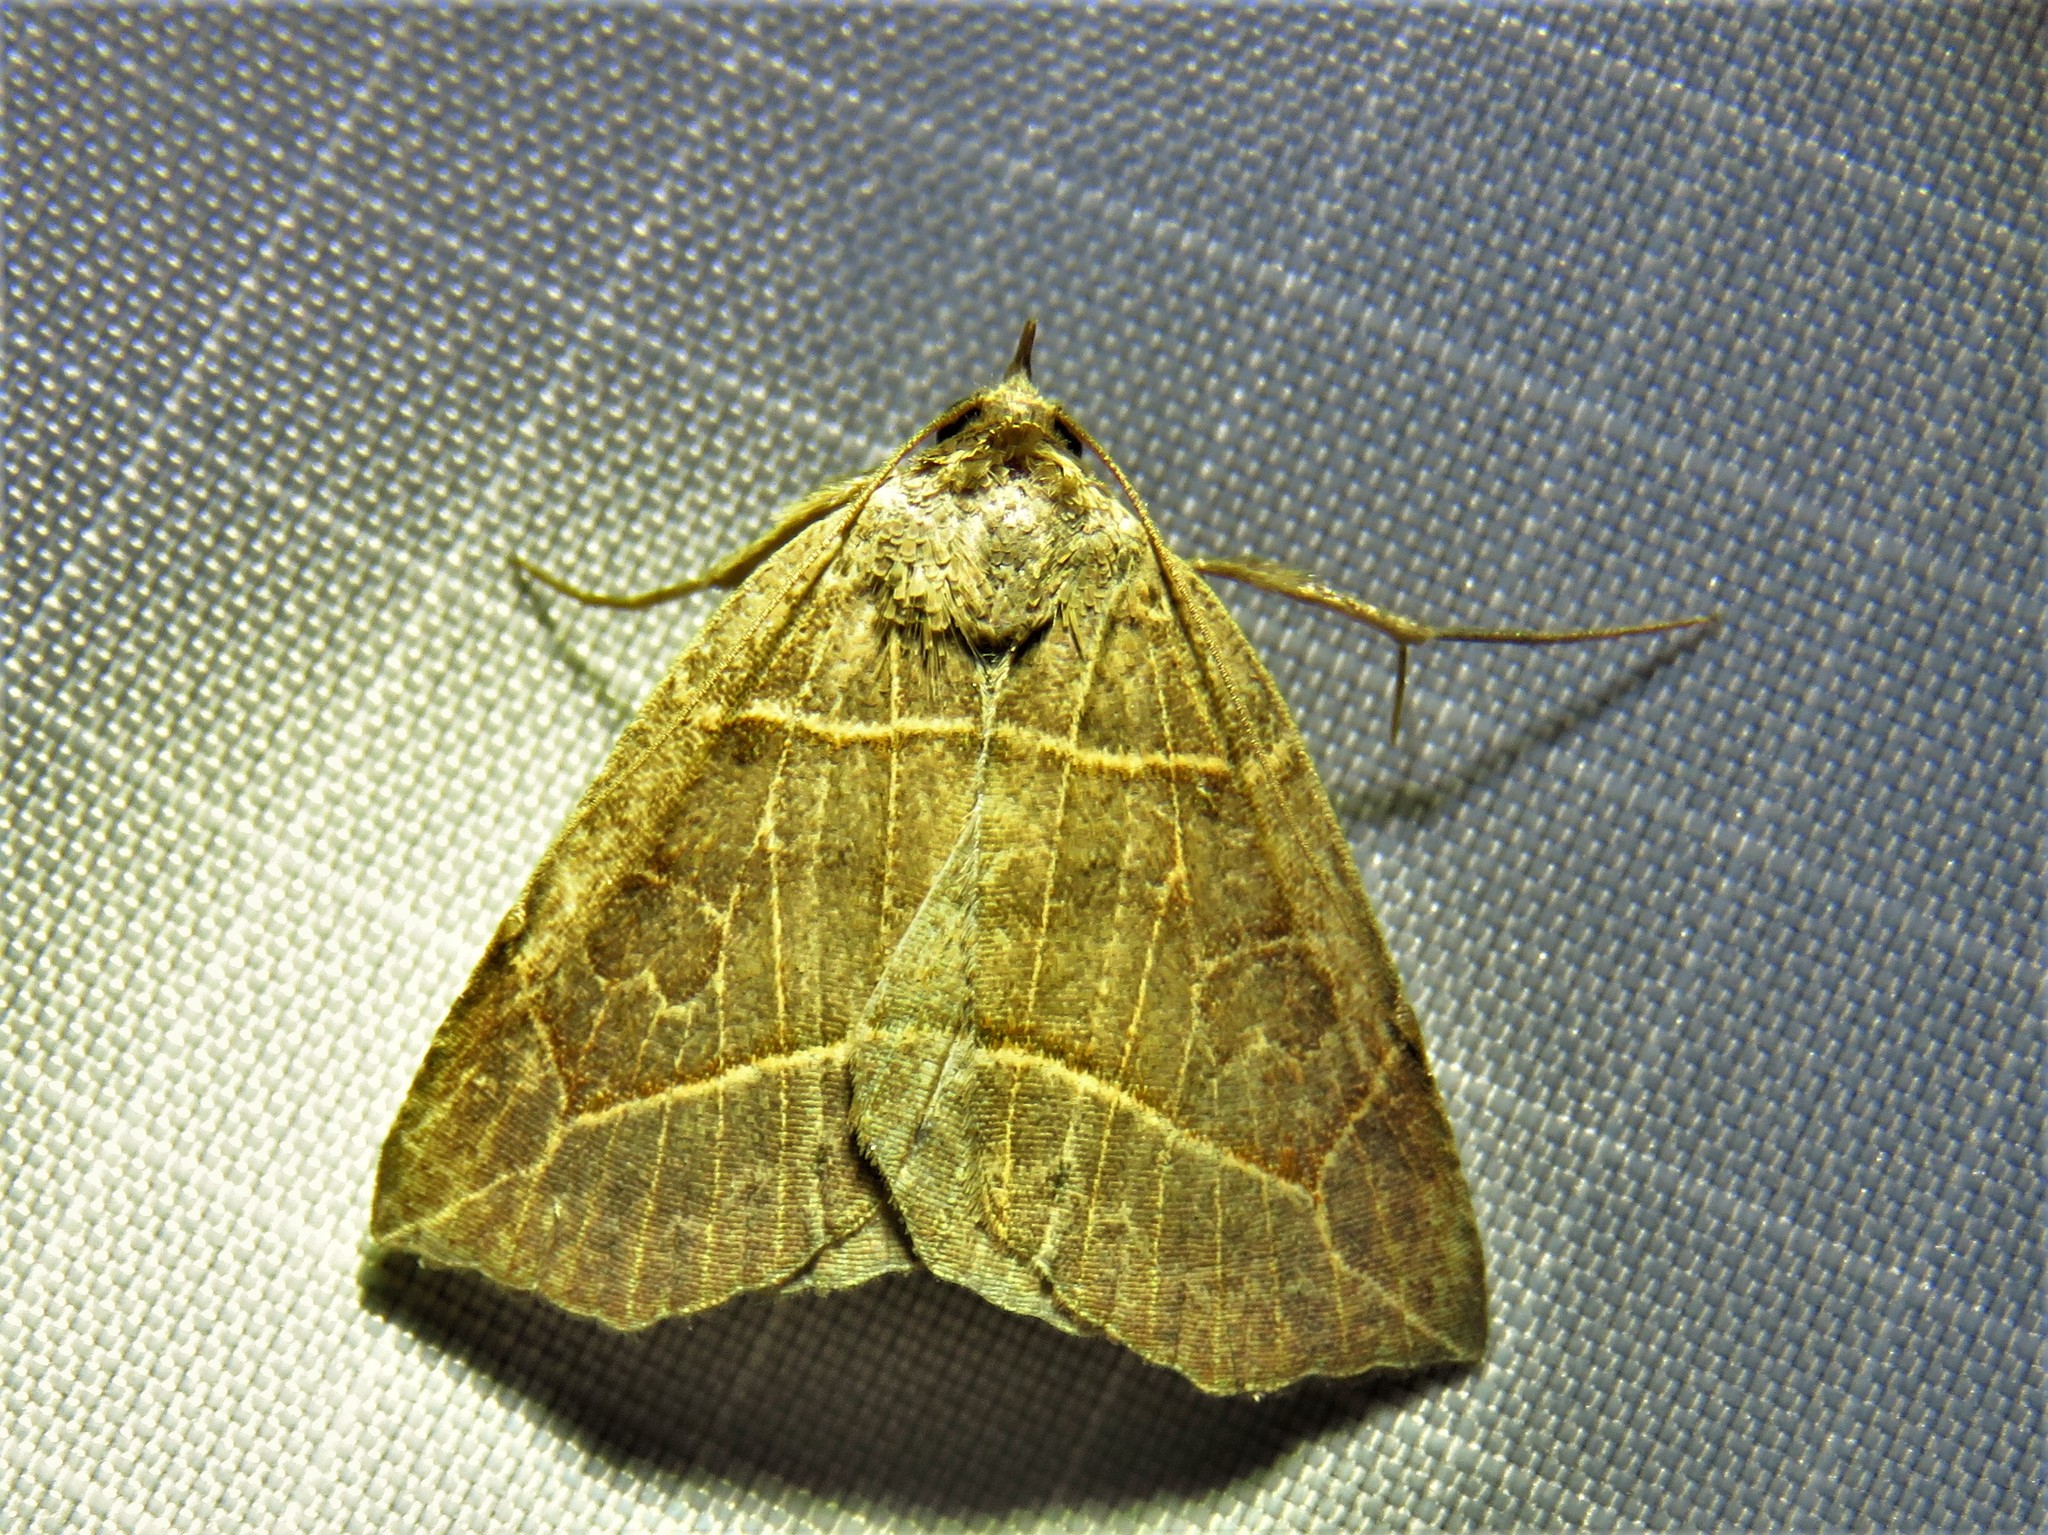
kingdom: Animalia
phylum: Arthropoda
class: Insecta
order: Lepidoptera
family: Erebidae
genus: Isogona
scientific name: Isogona tenuis
